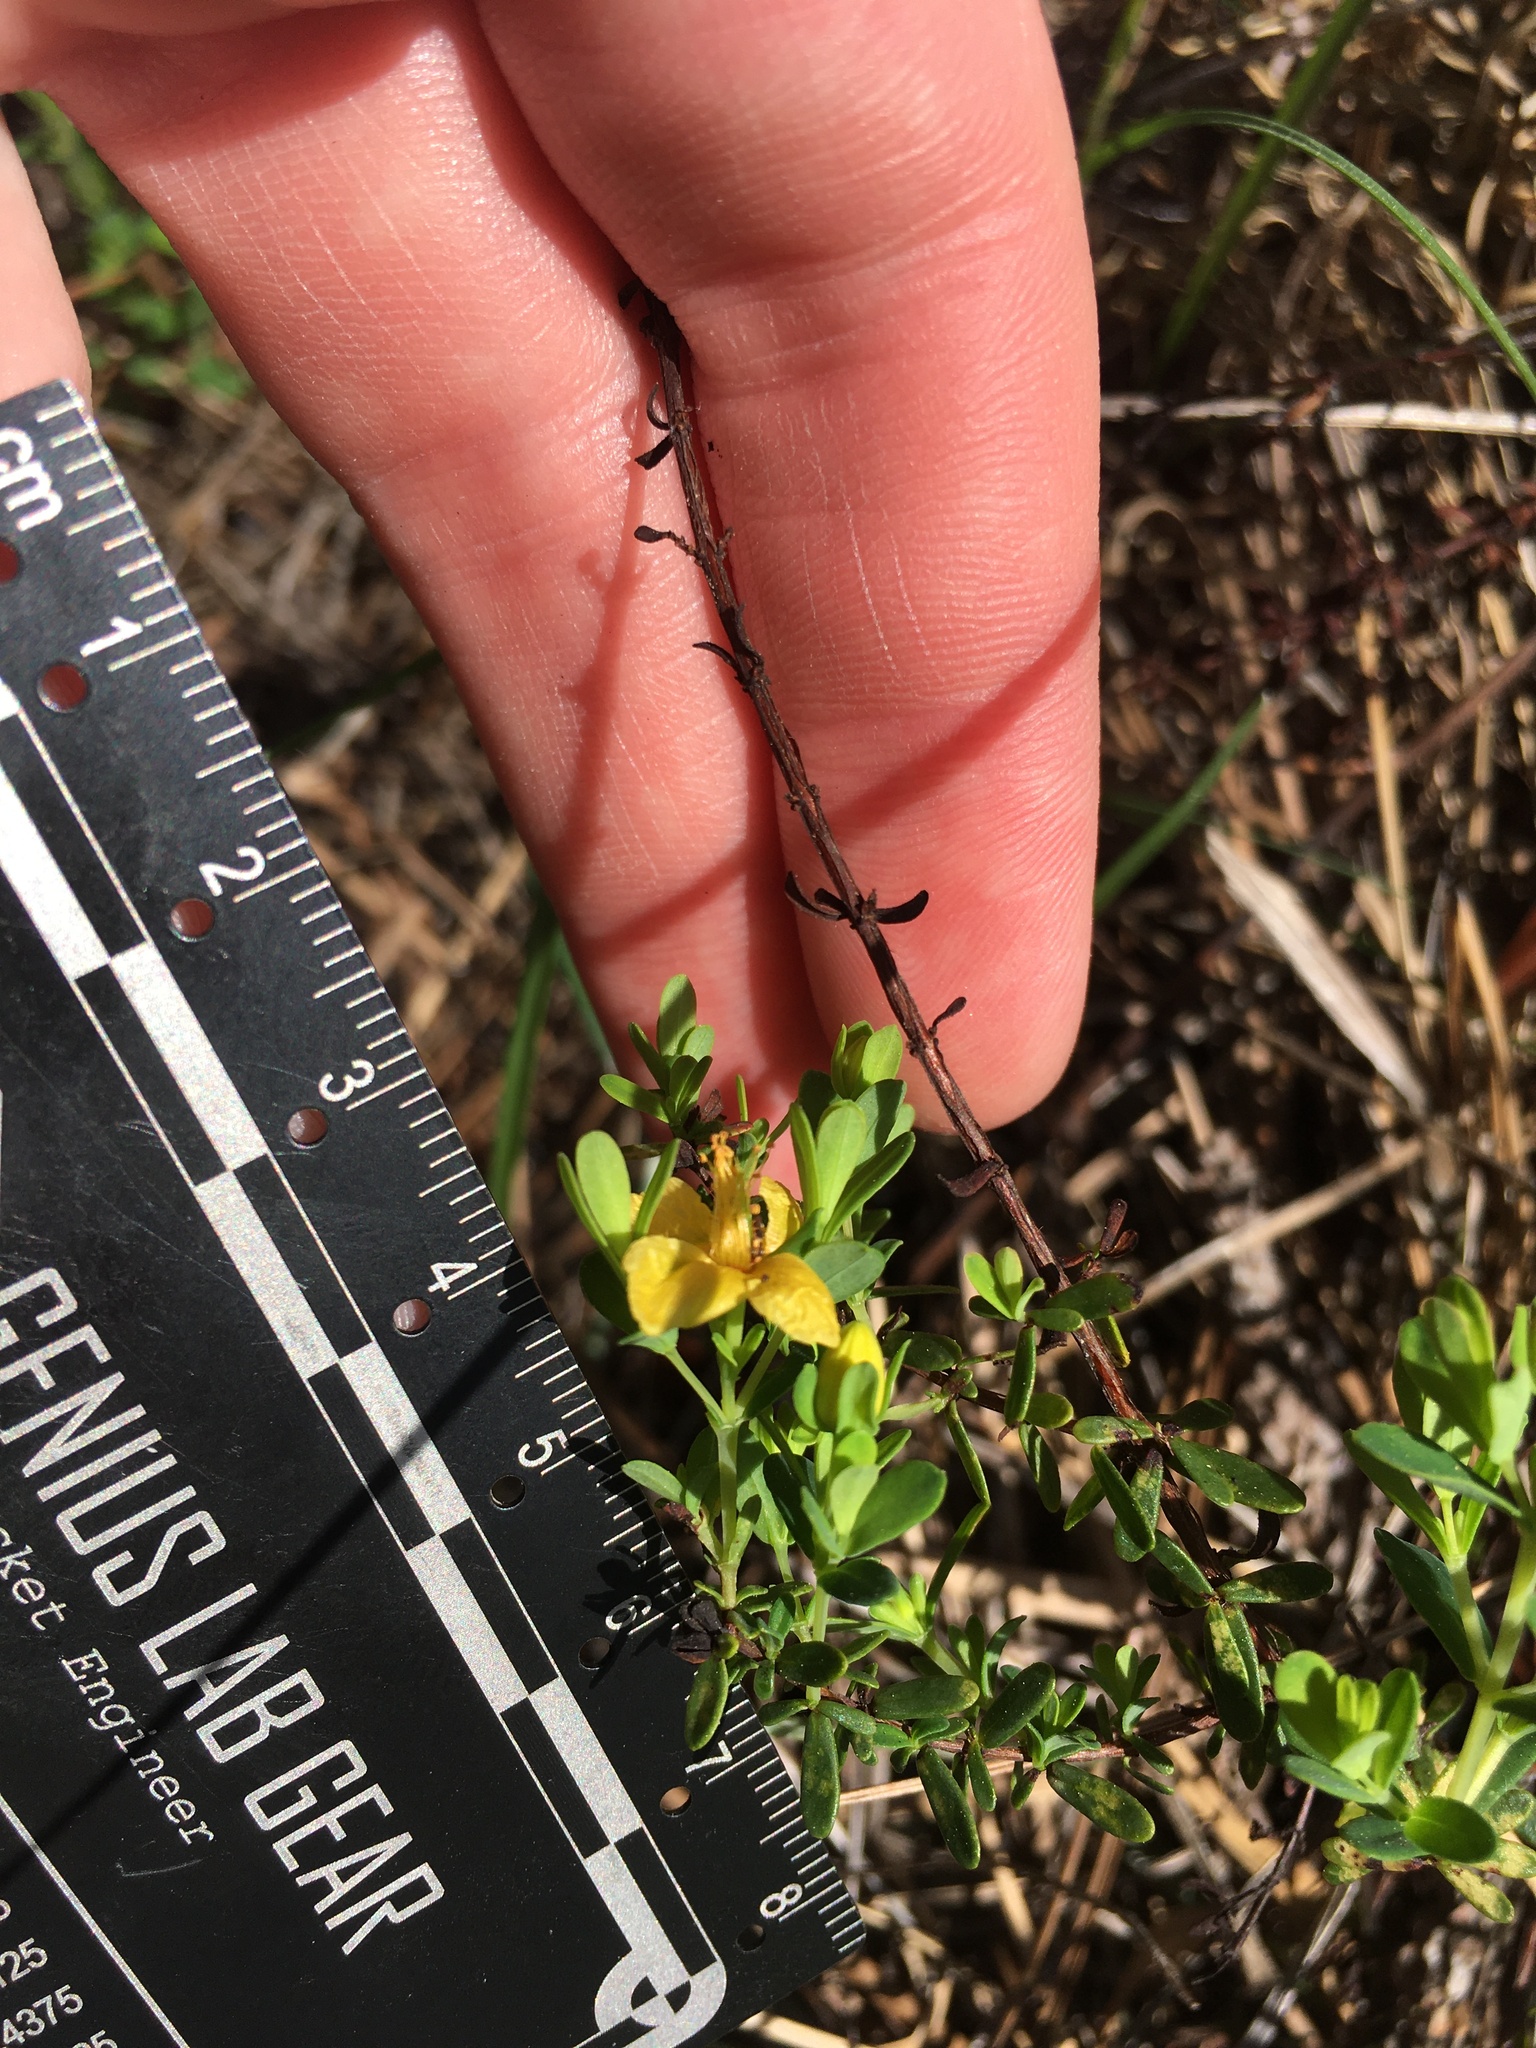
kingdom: Plantae
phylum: Tracheophyta
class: Magnoliopsida
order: Malpighiales
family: Hypericaceae
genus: Hypericum
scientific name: Hypericum microsepalum
